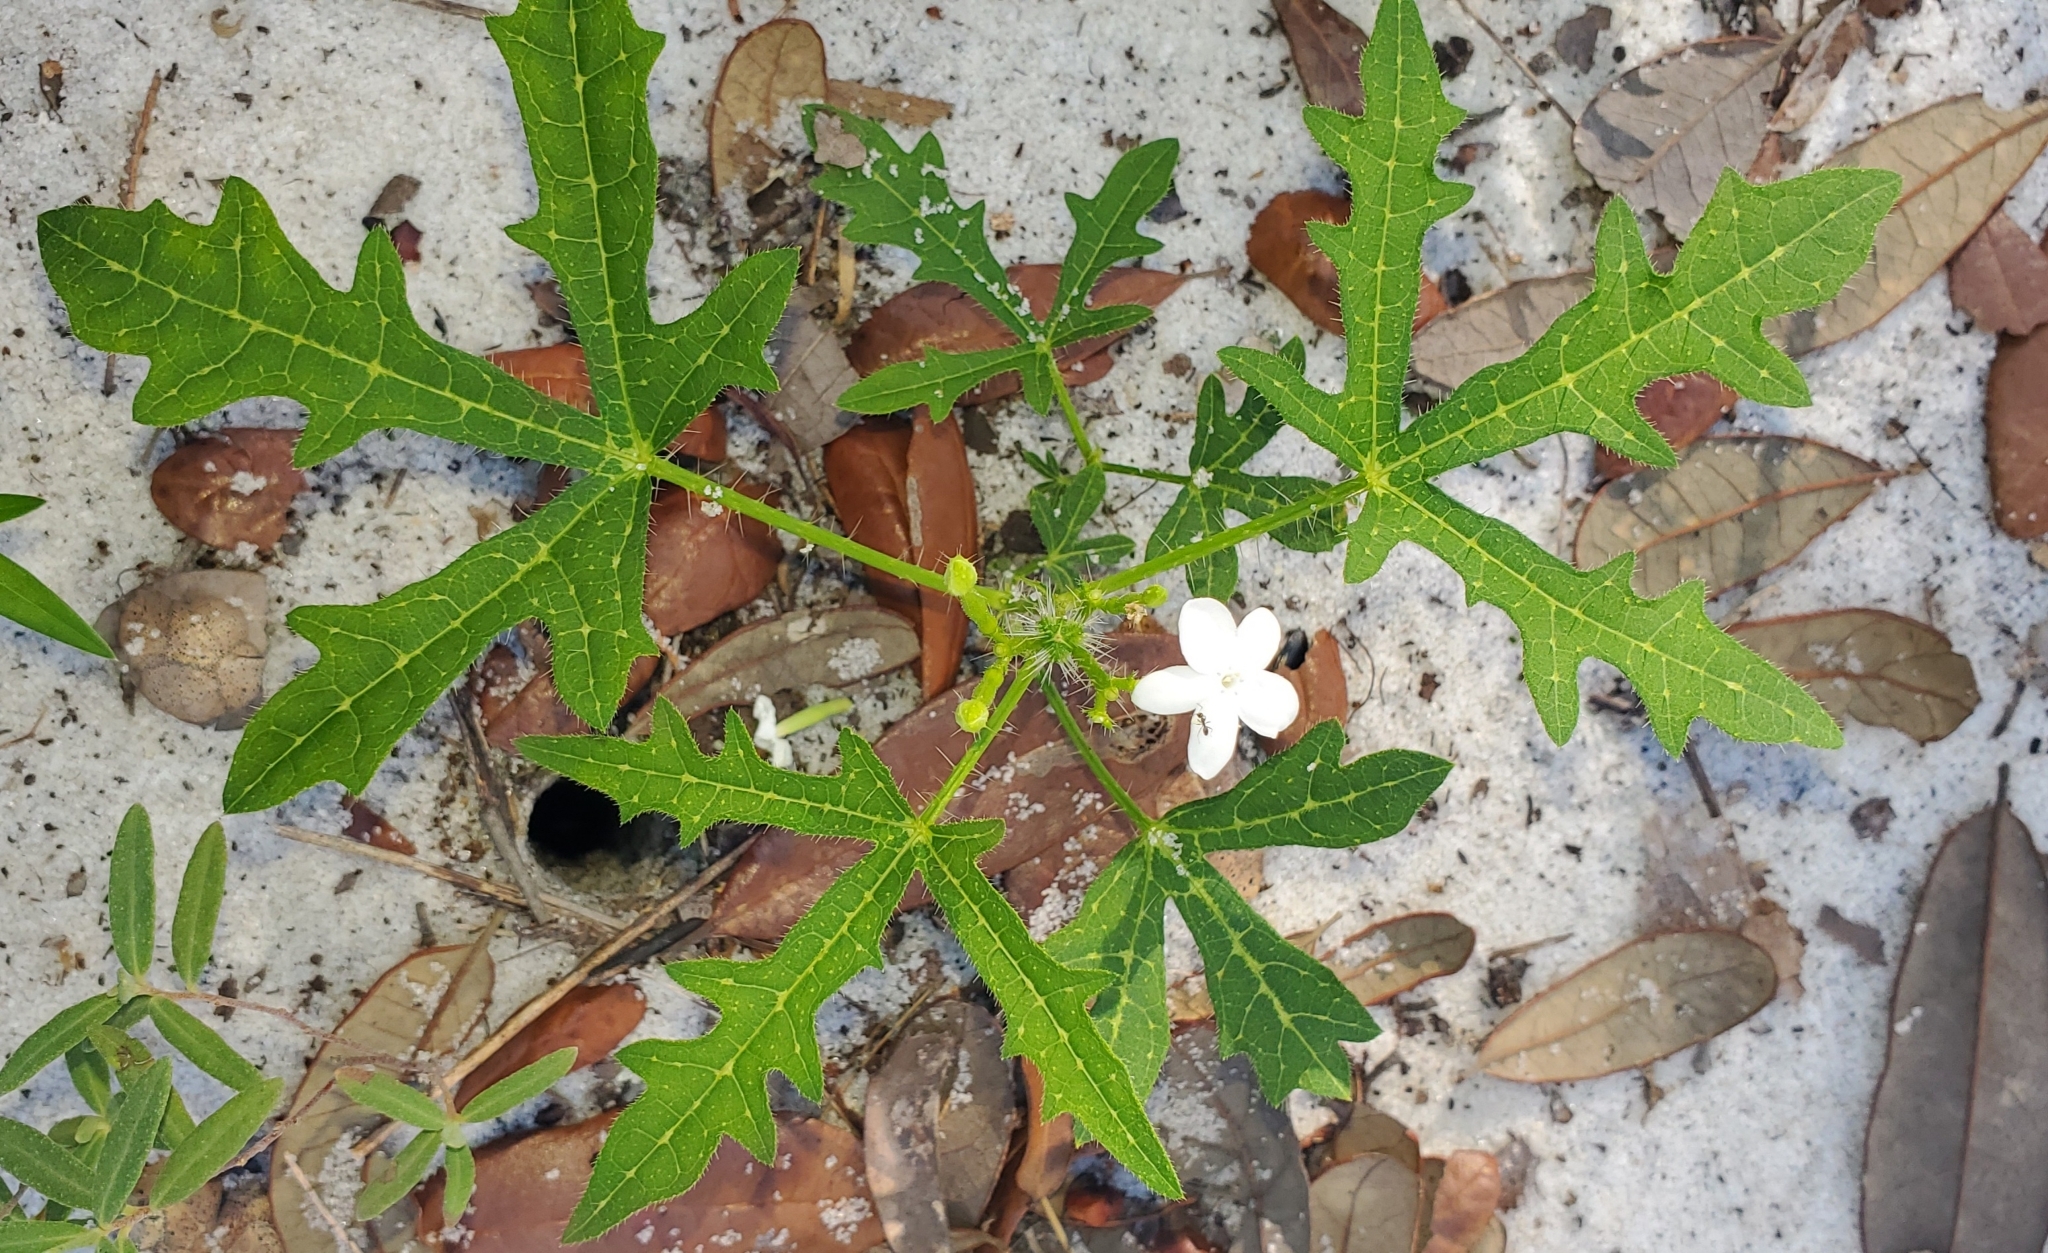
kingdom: Plantae
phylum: Tracheophyta
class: Magnoliopsida
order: Malpighiales
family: Euphorbiaceae
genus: Cnidoscolus
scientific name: Cnidoscolus stimulosus
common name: Bull-nettle
